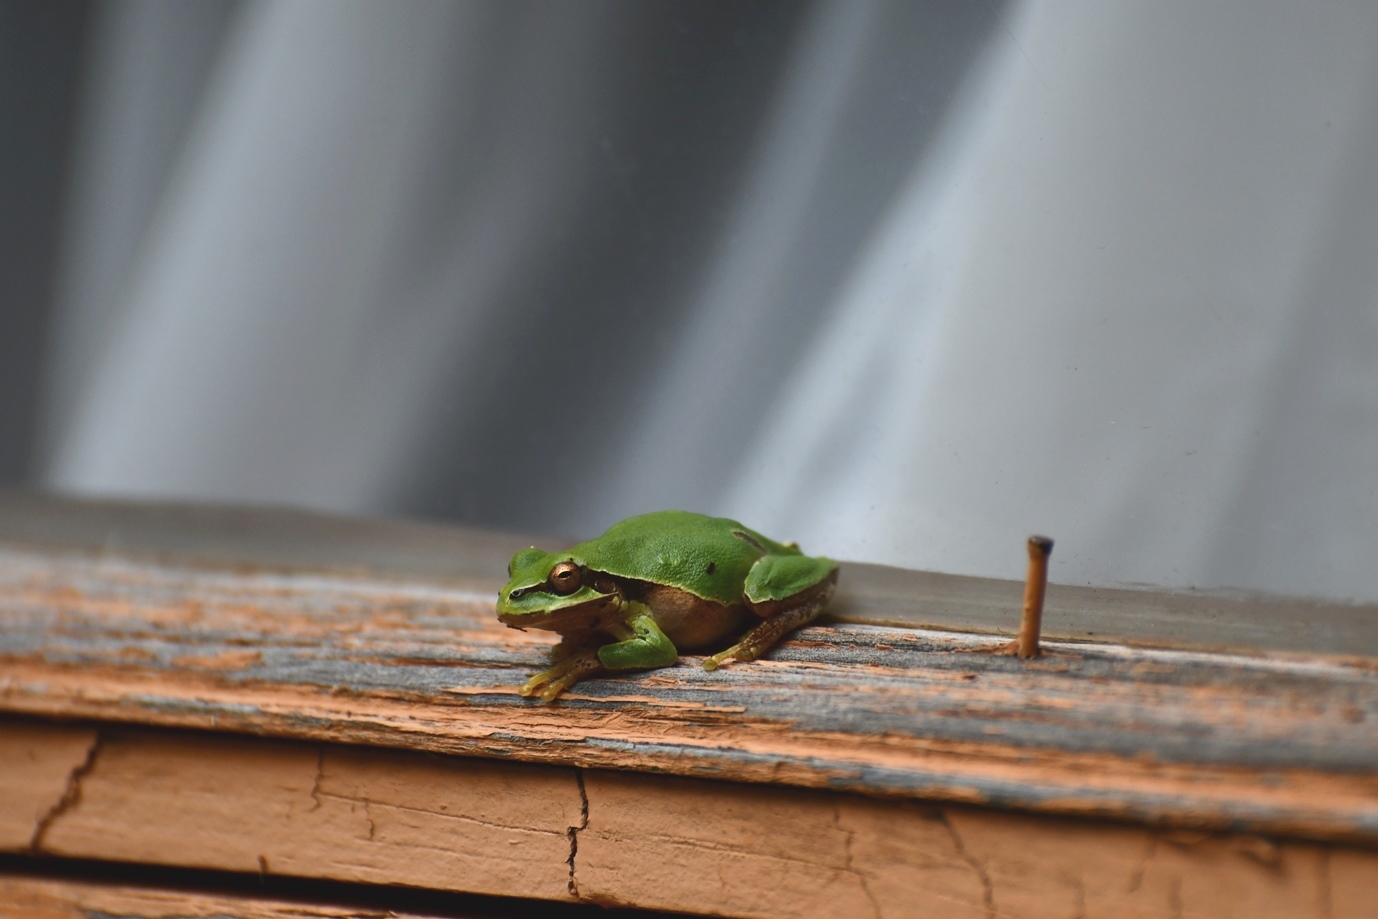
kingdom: Animalia
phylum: Chordata
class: Amphibia
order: Anura
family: Hylidae
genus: Dryophytes
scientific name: Dryophytes walkeri
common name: Walker's treefrog
